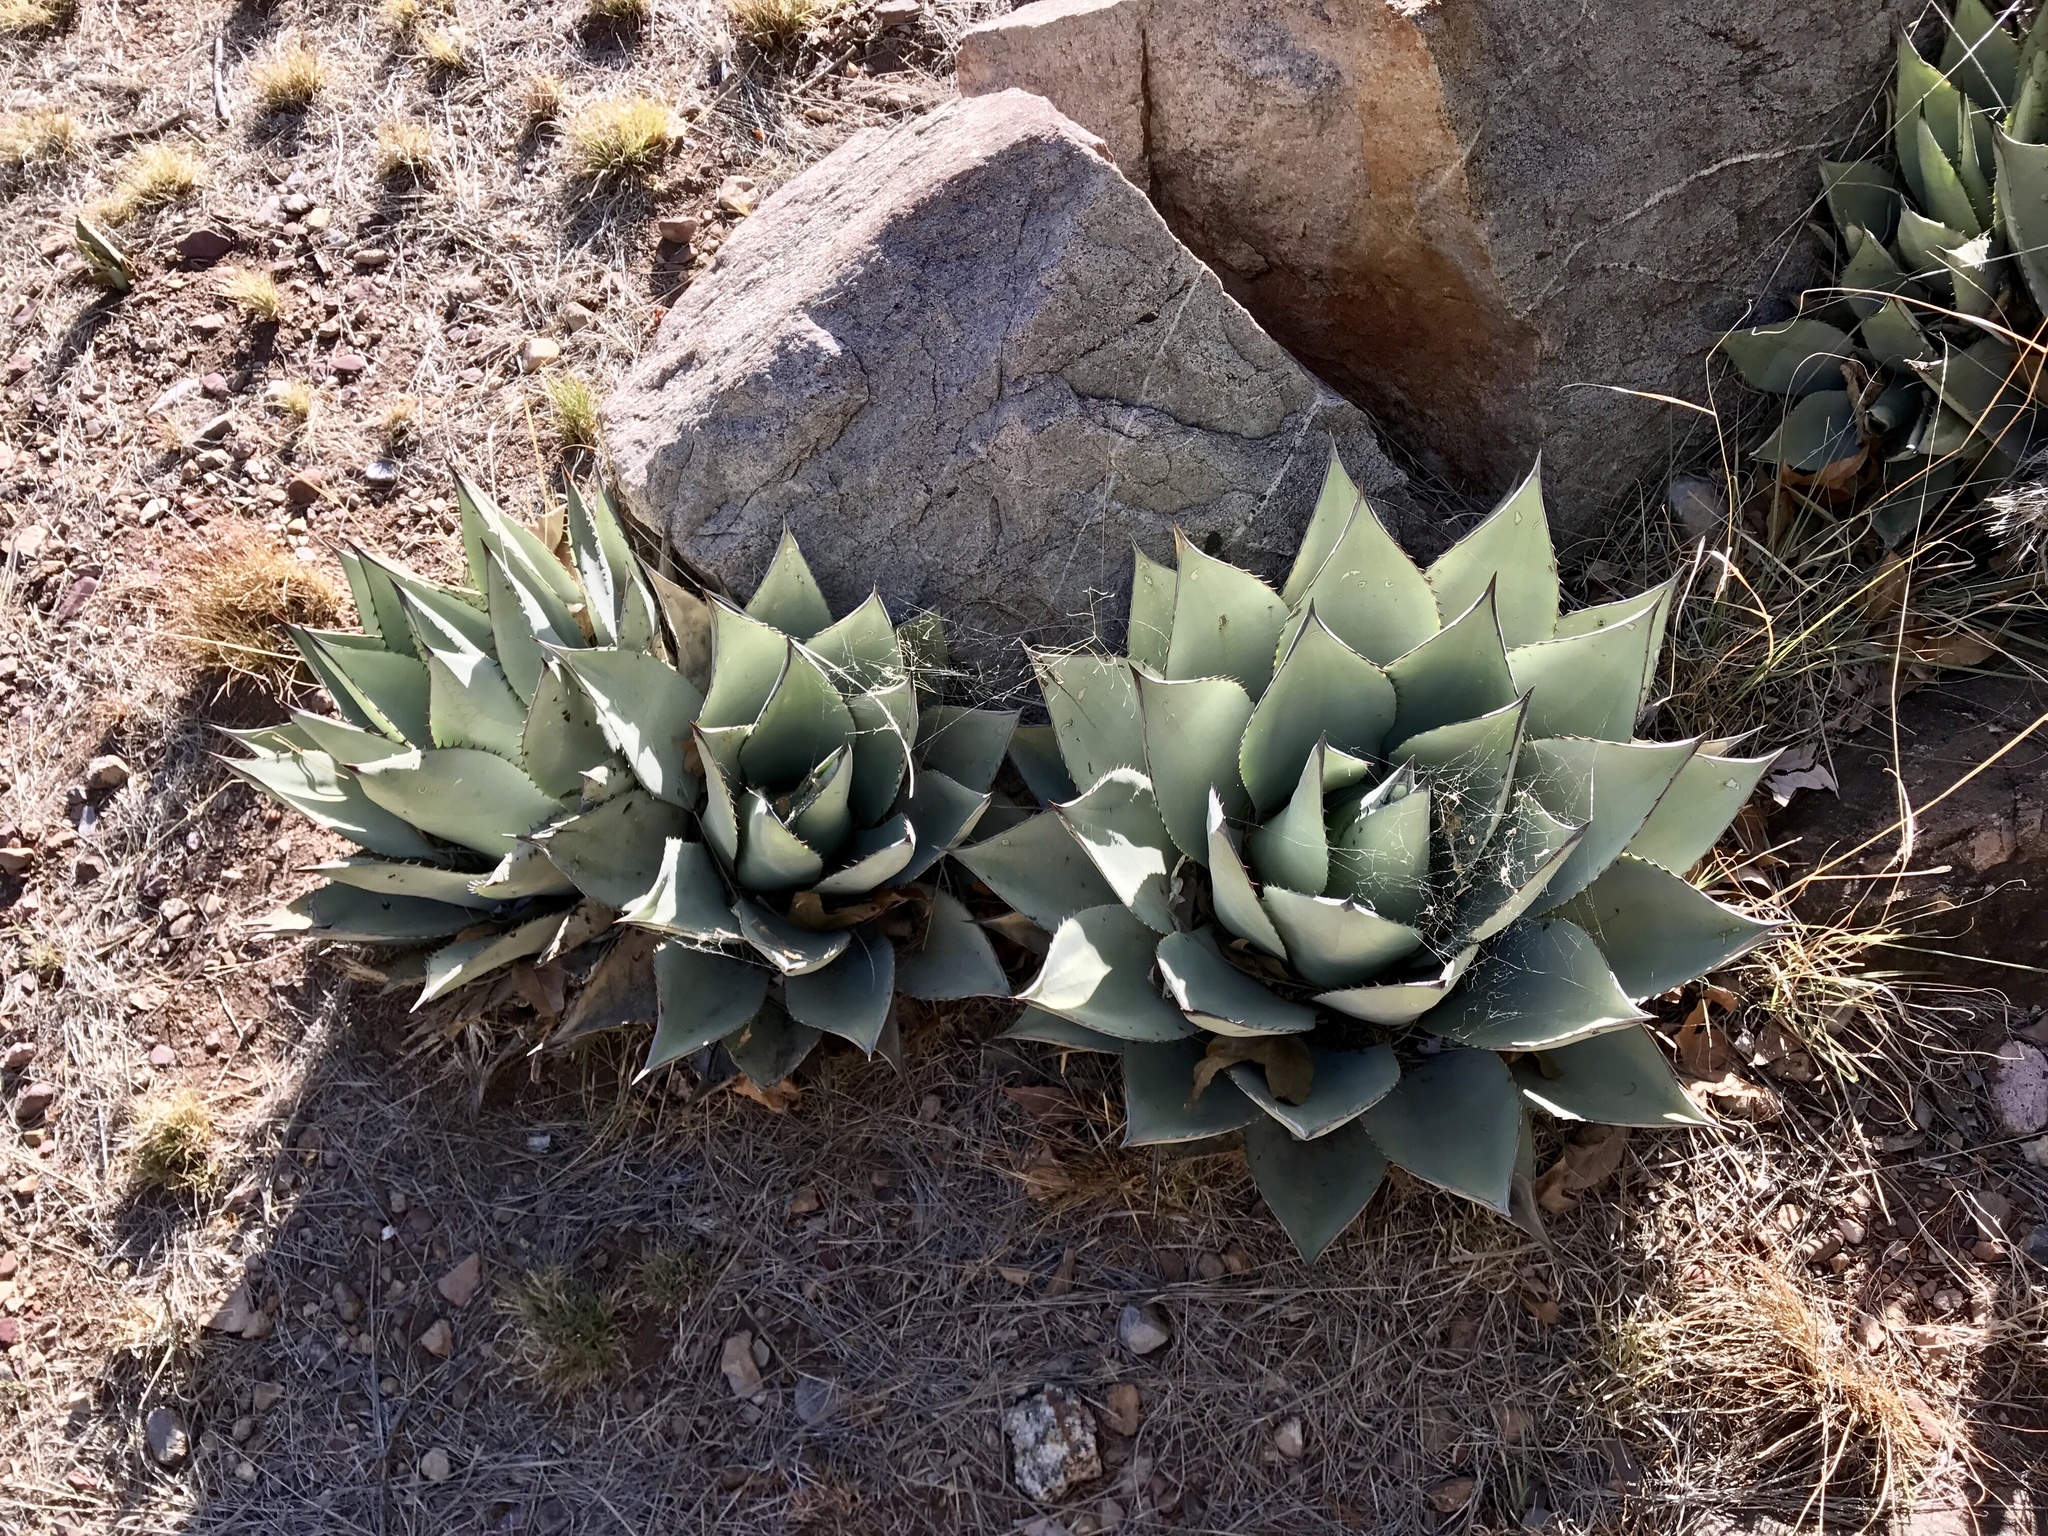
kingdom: Plantae
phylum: Tracheophyta
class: Liliopsida
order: Asparagales
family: Asparagaceae
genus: Agave
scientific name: Agave parryi
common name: Parry's agave
